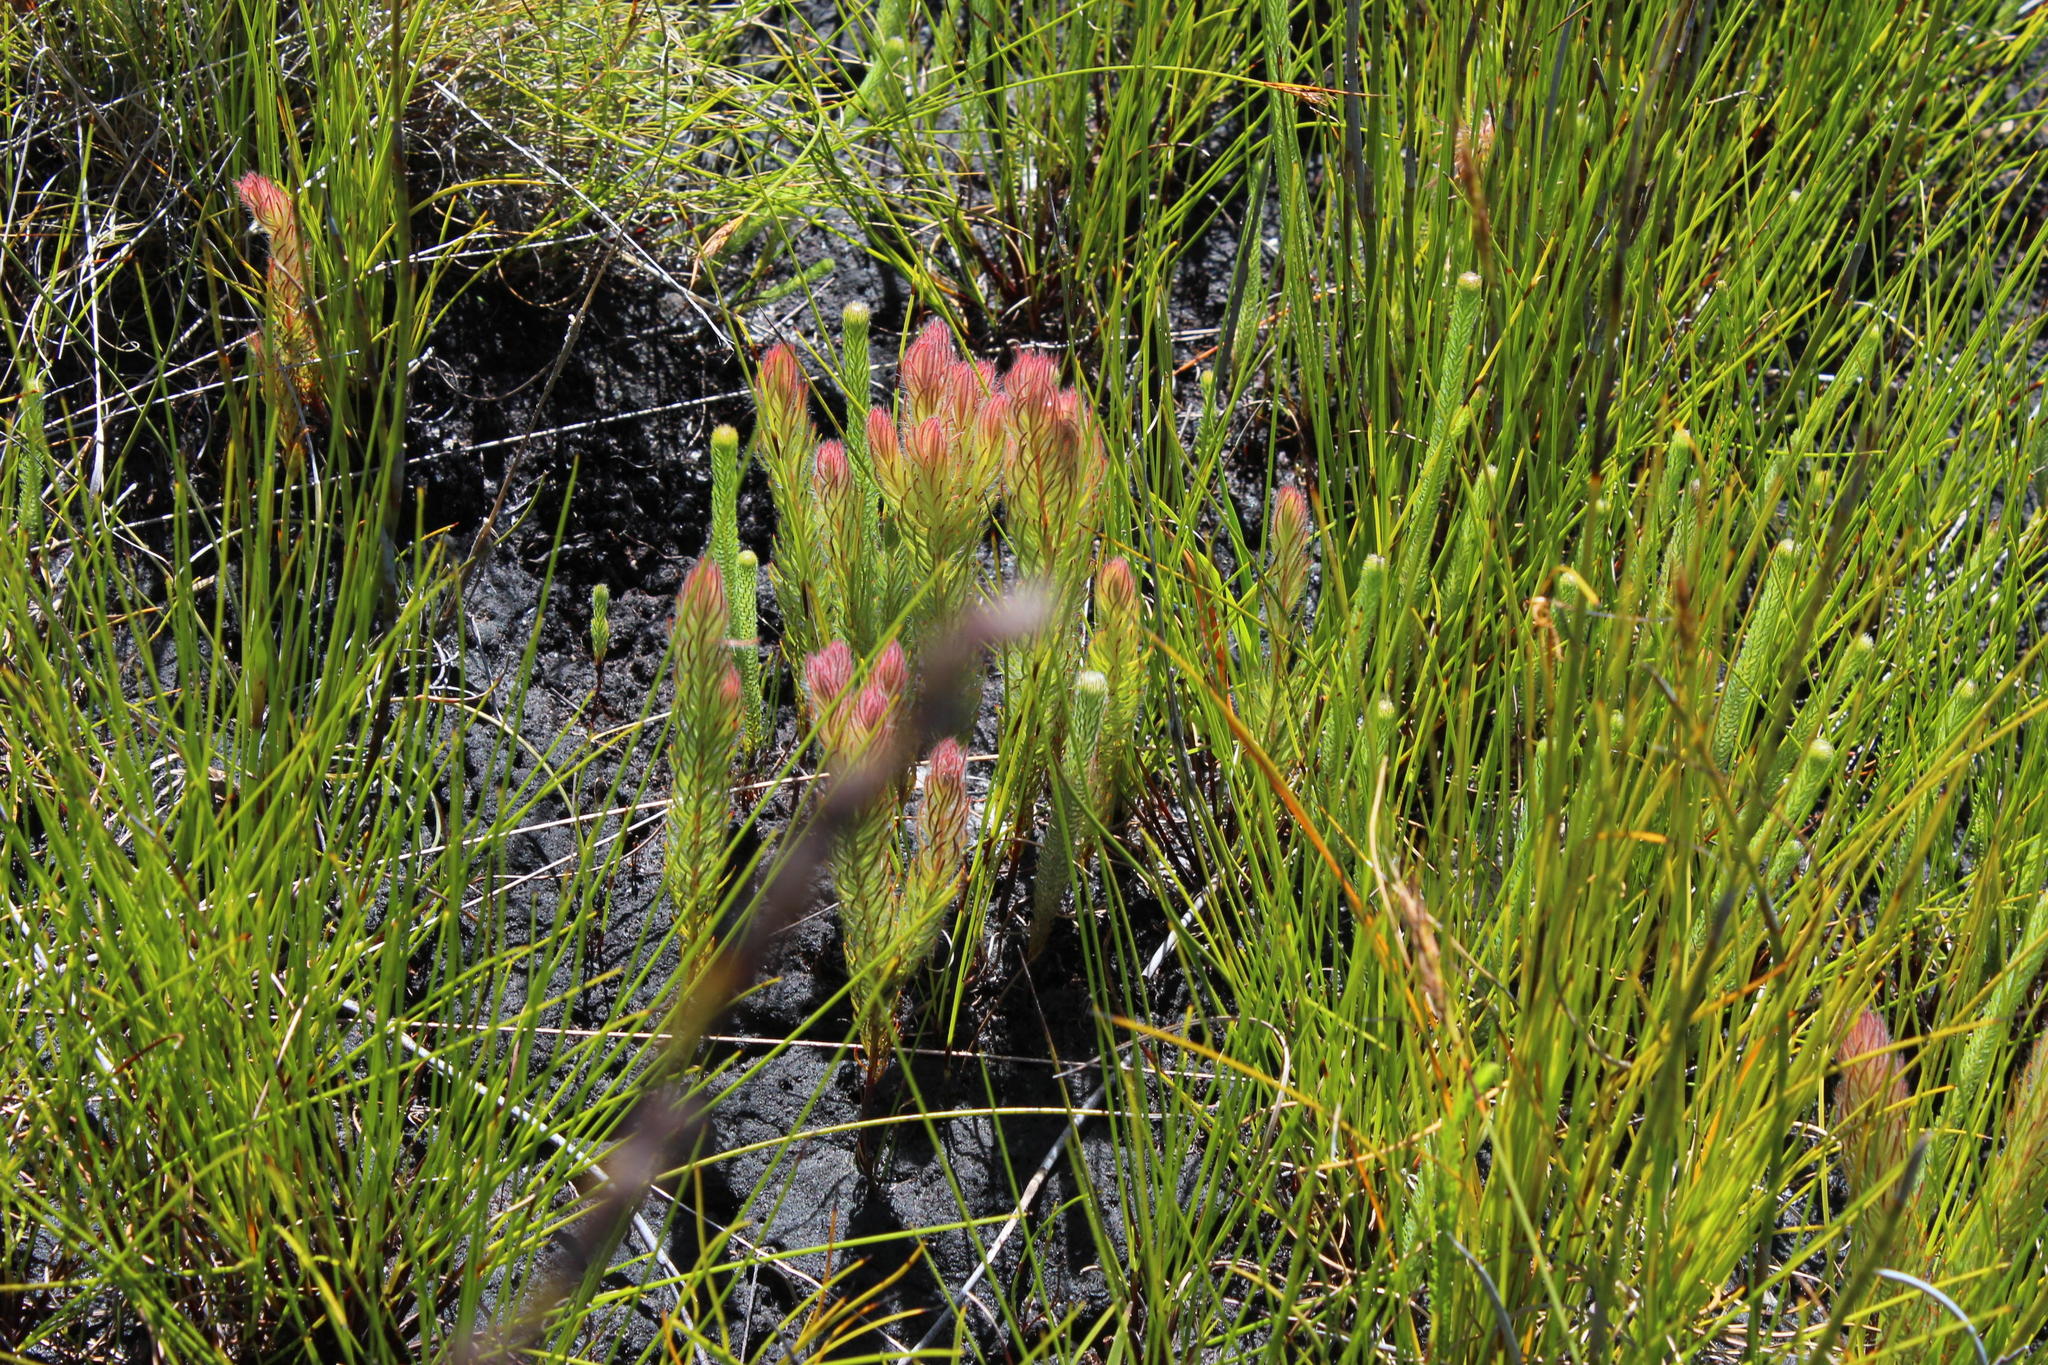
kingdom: Plantae
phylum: Tracheophyta
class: Magnoliopsida
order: Proteales
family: Proteaceae
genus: Spatalla
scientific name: Spatalla mollis
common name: Woolly spoon
